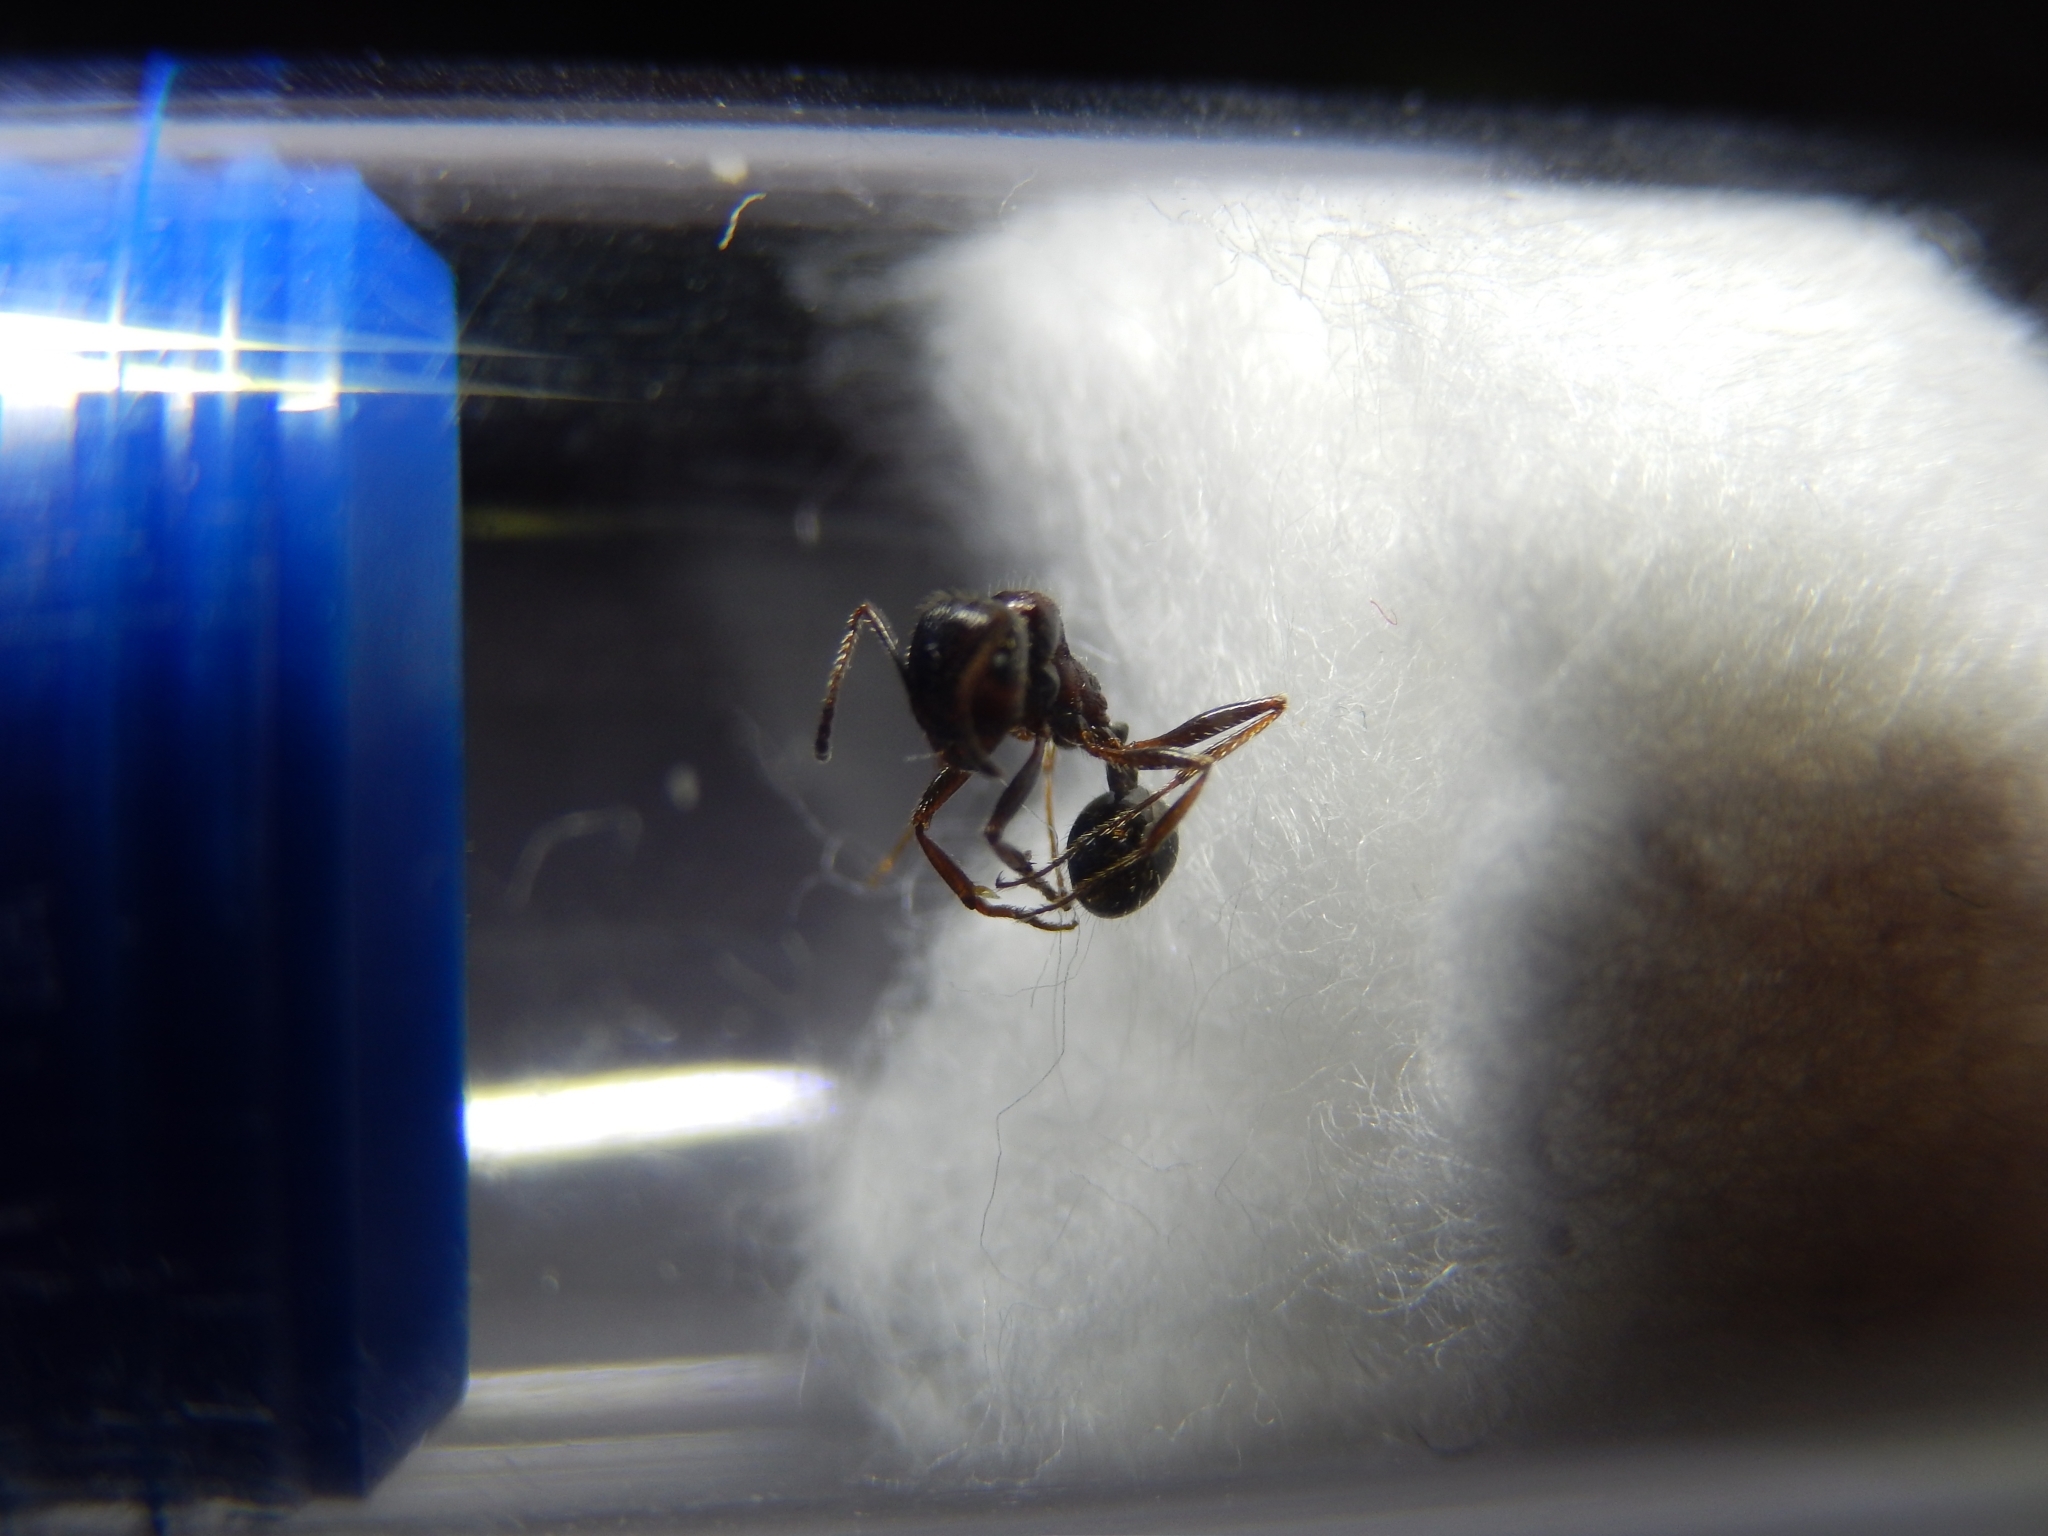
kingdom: Animalia
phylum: Arthropoda
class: Insecta
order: Hymenoptera
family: Formicidae
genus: Messor
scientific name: Messor structor
